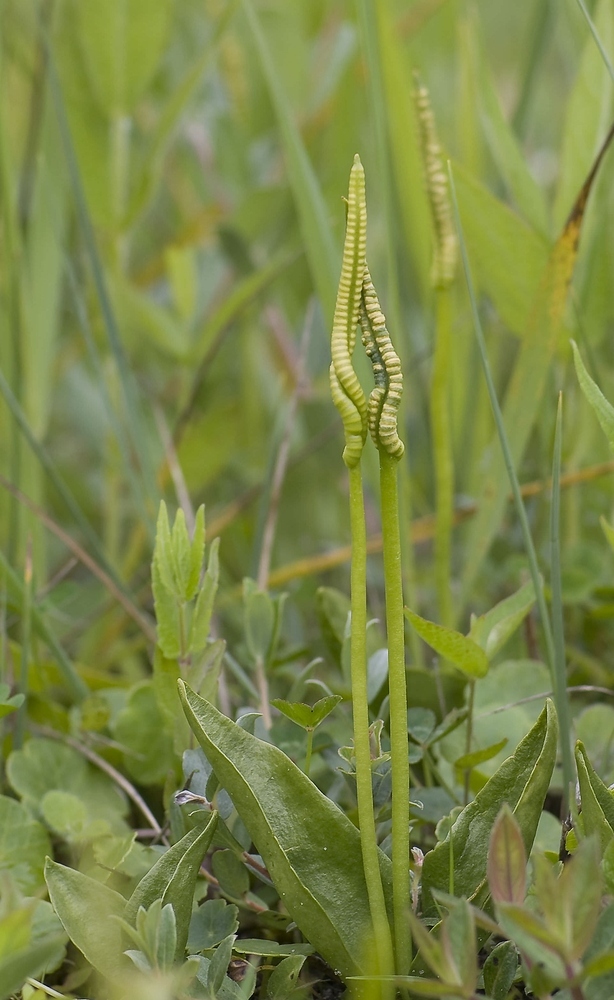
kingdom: Plantae
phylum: Tracheophyta
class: Polypodiopsida
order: Ophioglossales
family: Ophioglossaceae
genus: Ophioglossum
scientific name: Ophioglossum vulgatum
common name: Adder's-tongue
